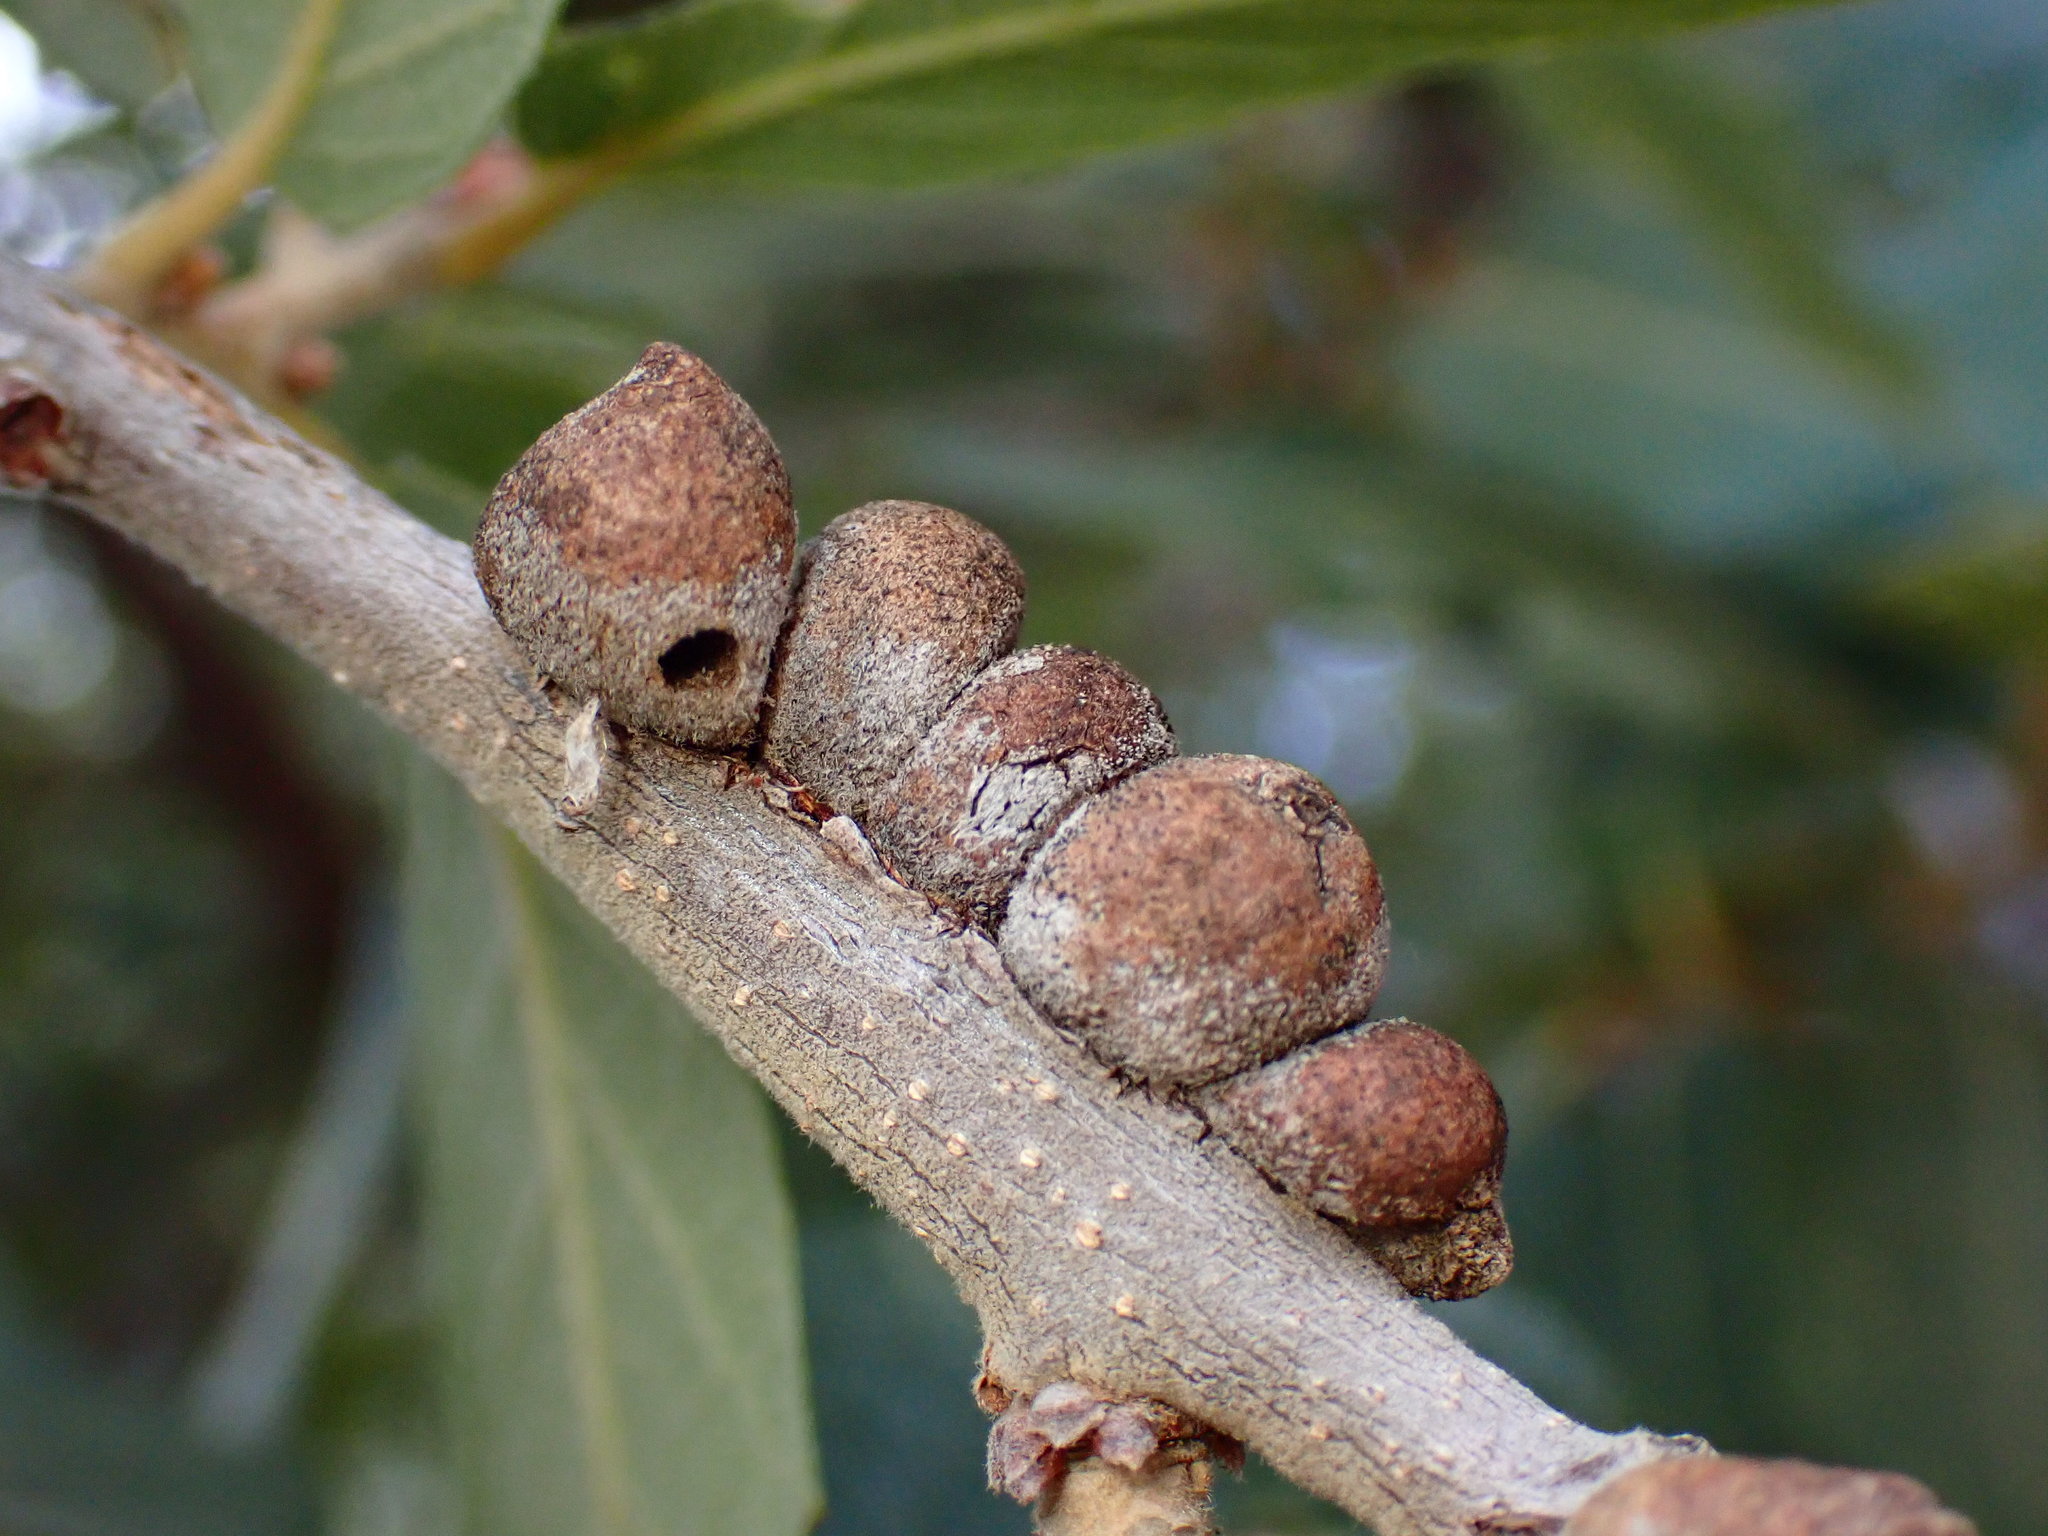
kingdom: Animalia
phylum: Arthropoda
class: Insecta
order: Hymenoptera
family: Cynipidae
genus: Disholcaspis
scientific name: Disholcaspis
